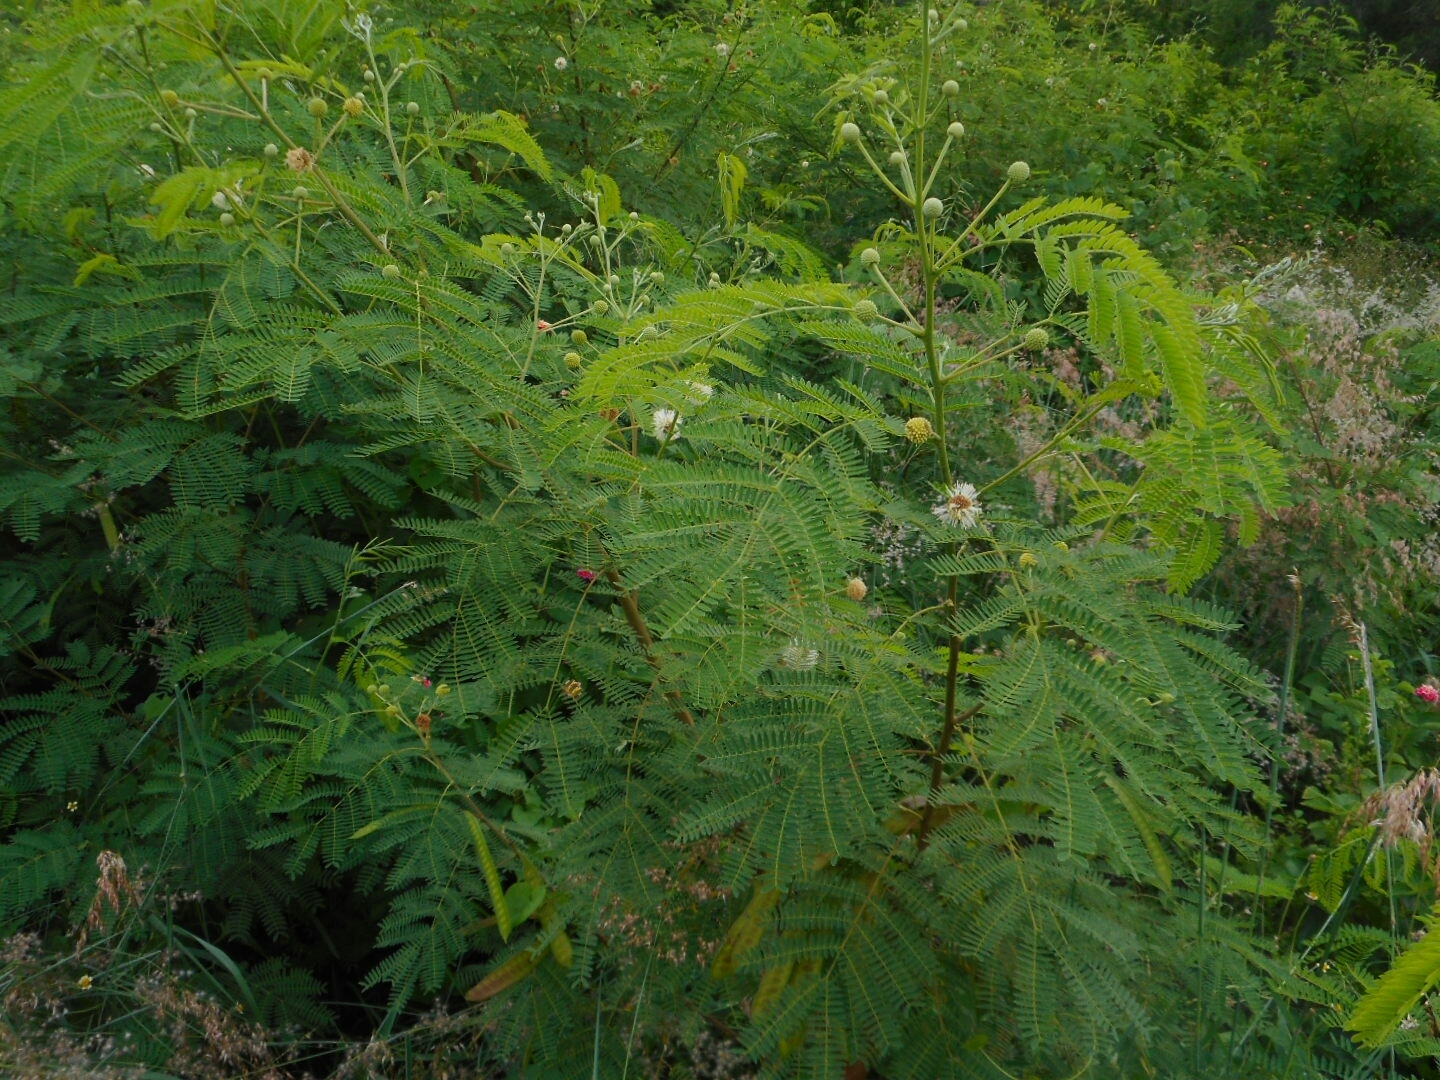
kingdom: Plantae
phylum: Tracheophyta
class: Magnoliopsida
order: Fabales
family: Fabaceae
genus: Leucaena
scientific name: Leucaena leucocephala
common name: White leadtree
